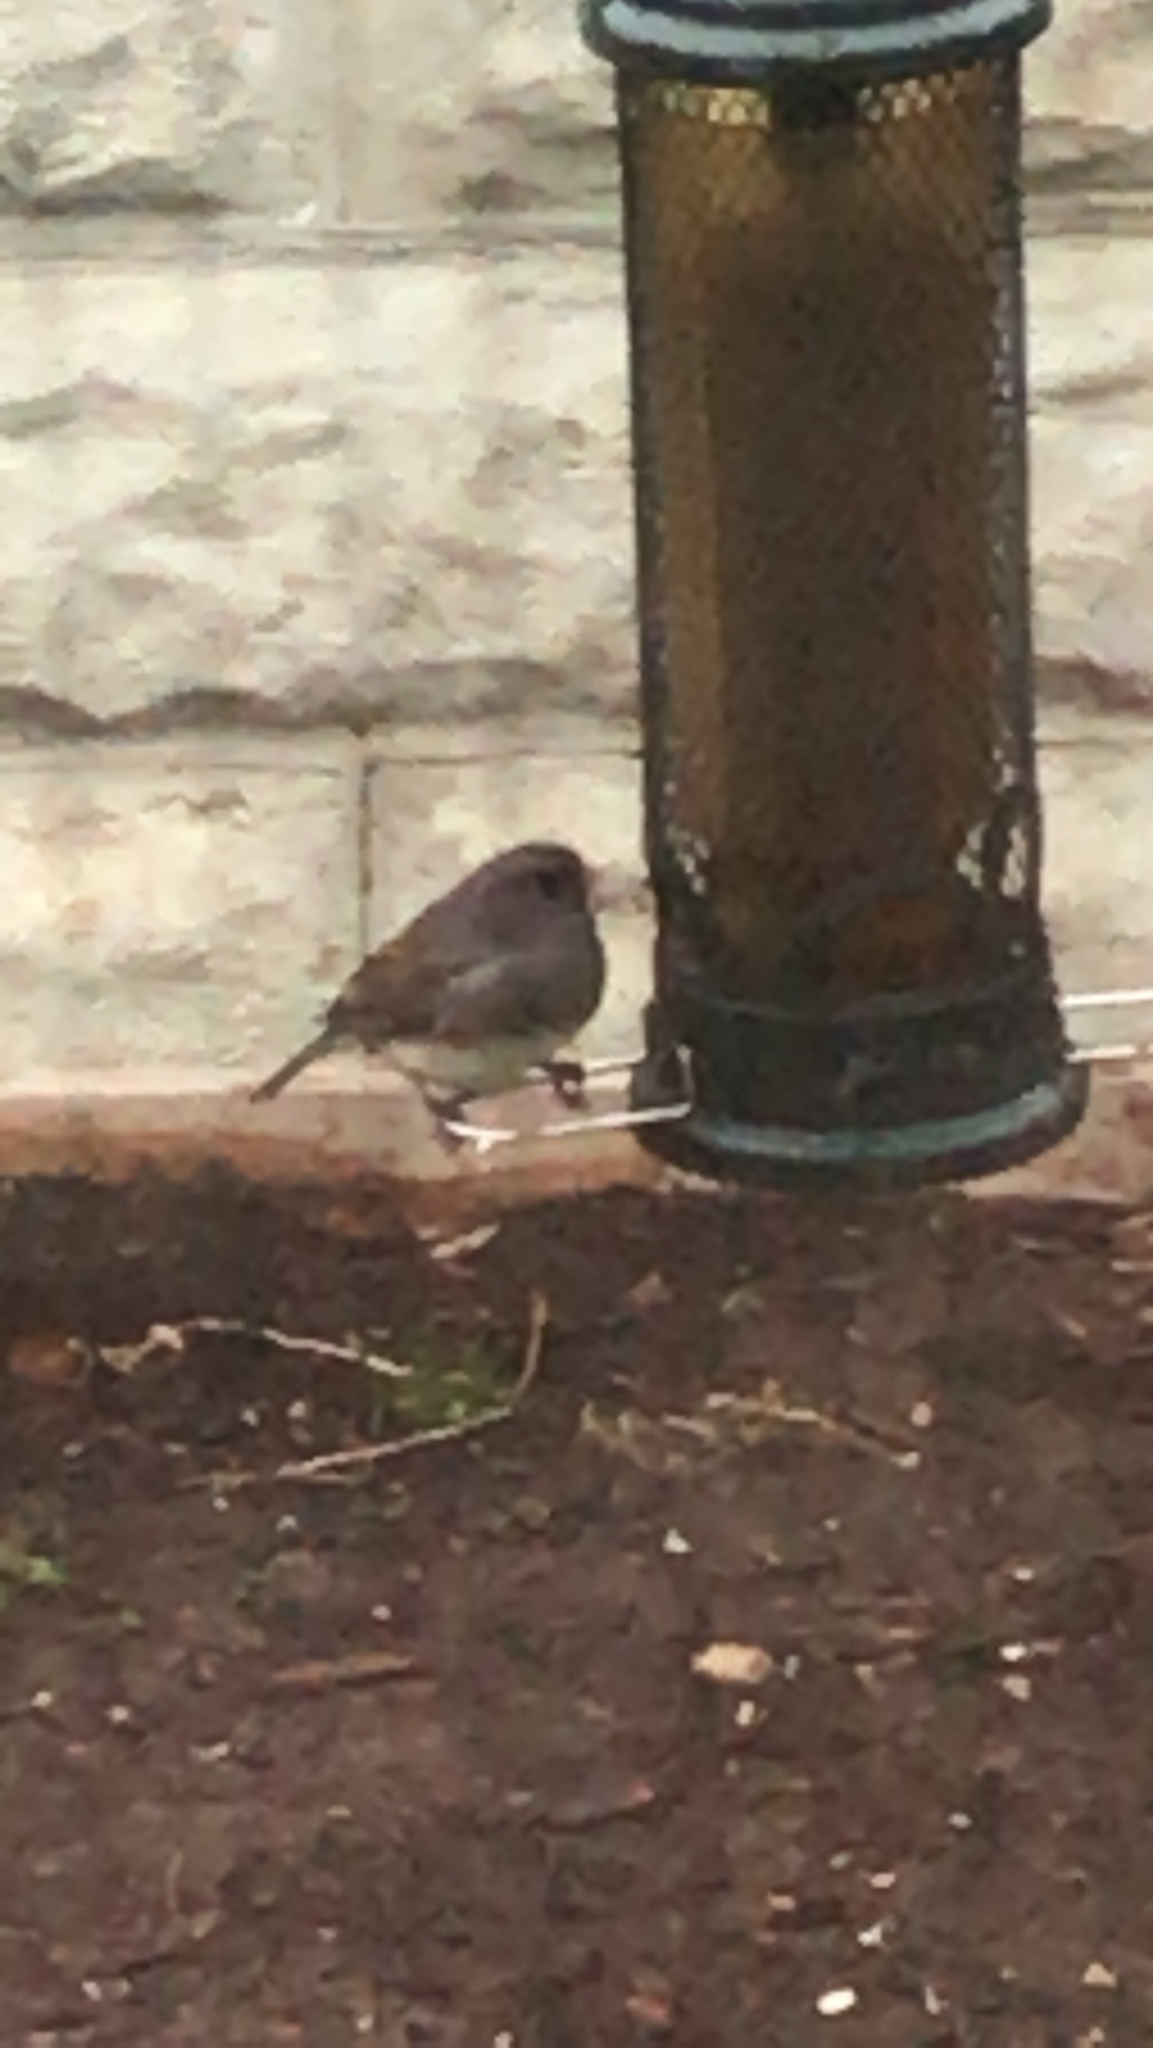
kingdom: Animalia
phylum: Chordata
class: Aves
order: Passeriformes
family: Passerellidae
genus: Junco
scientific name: Junco hyemalis
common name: Dark-eyed junco
